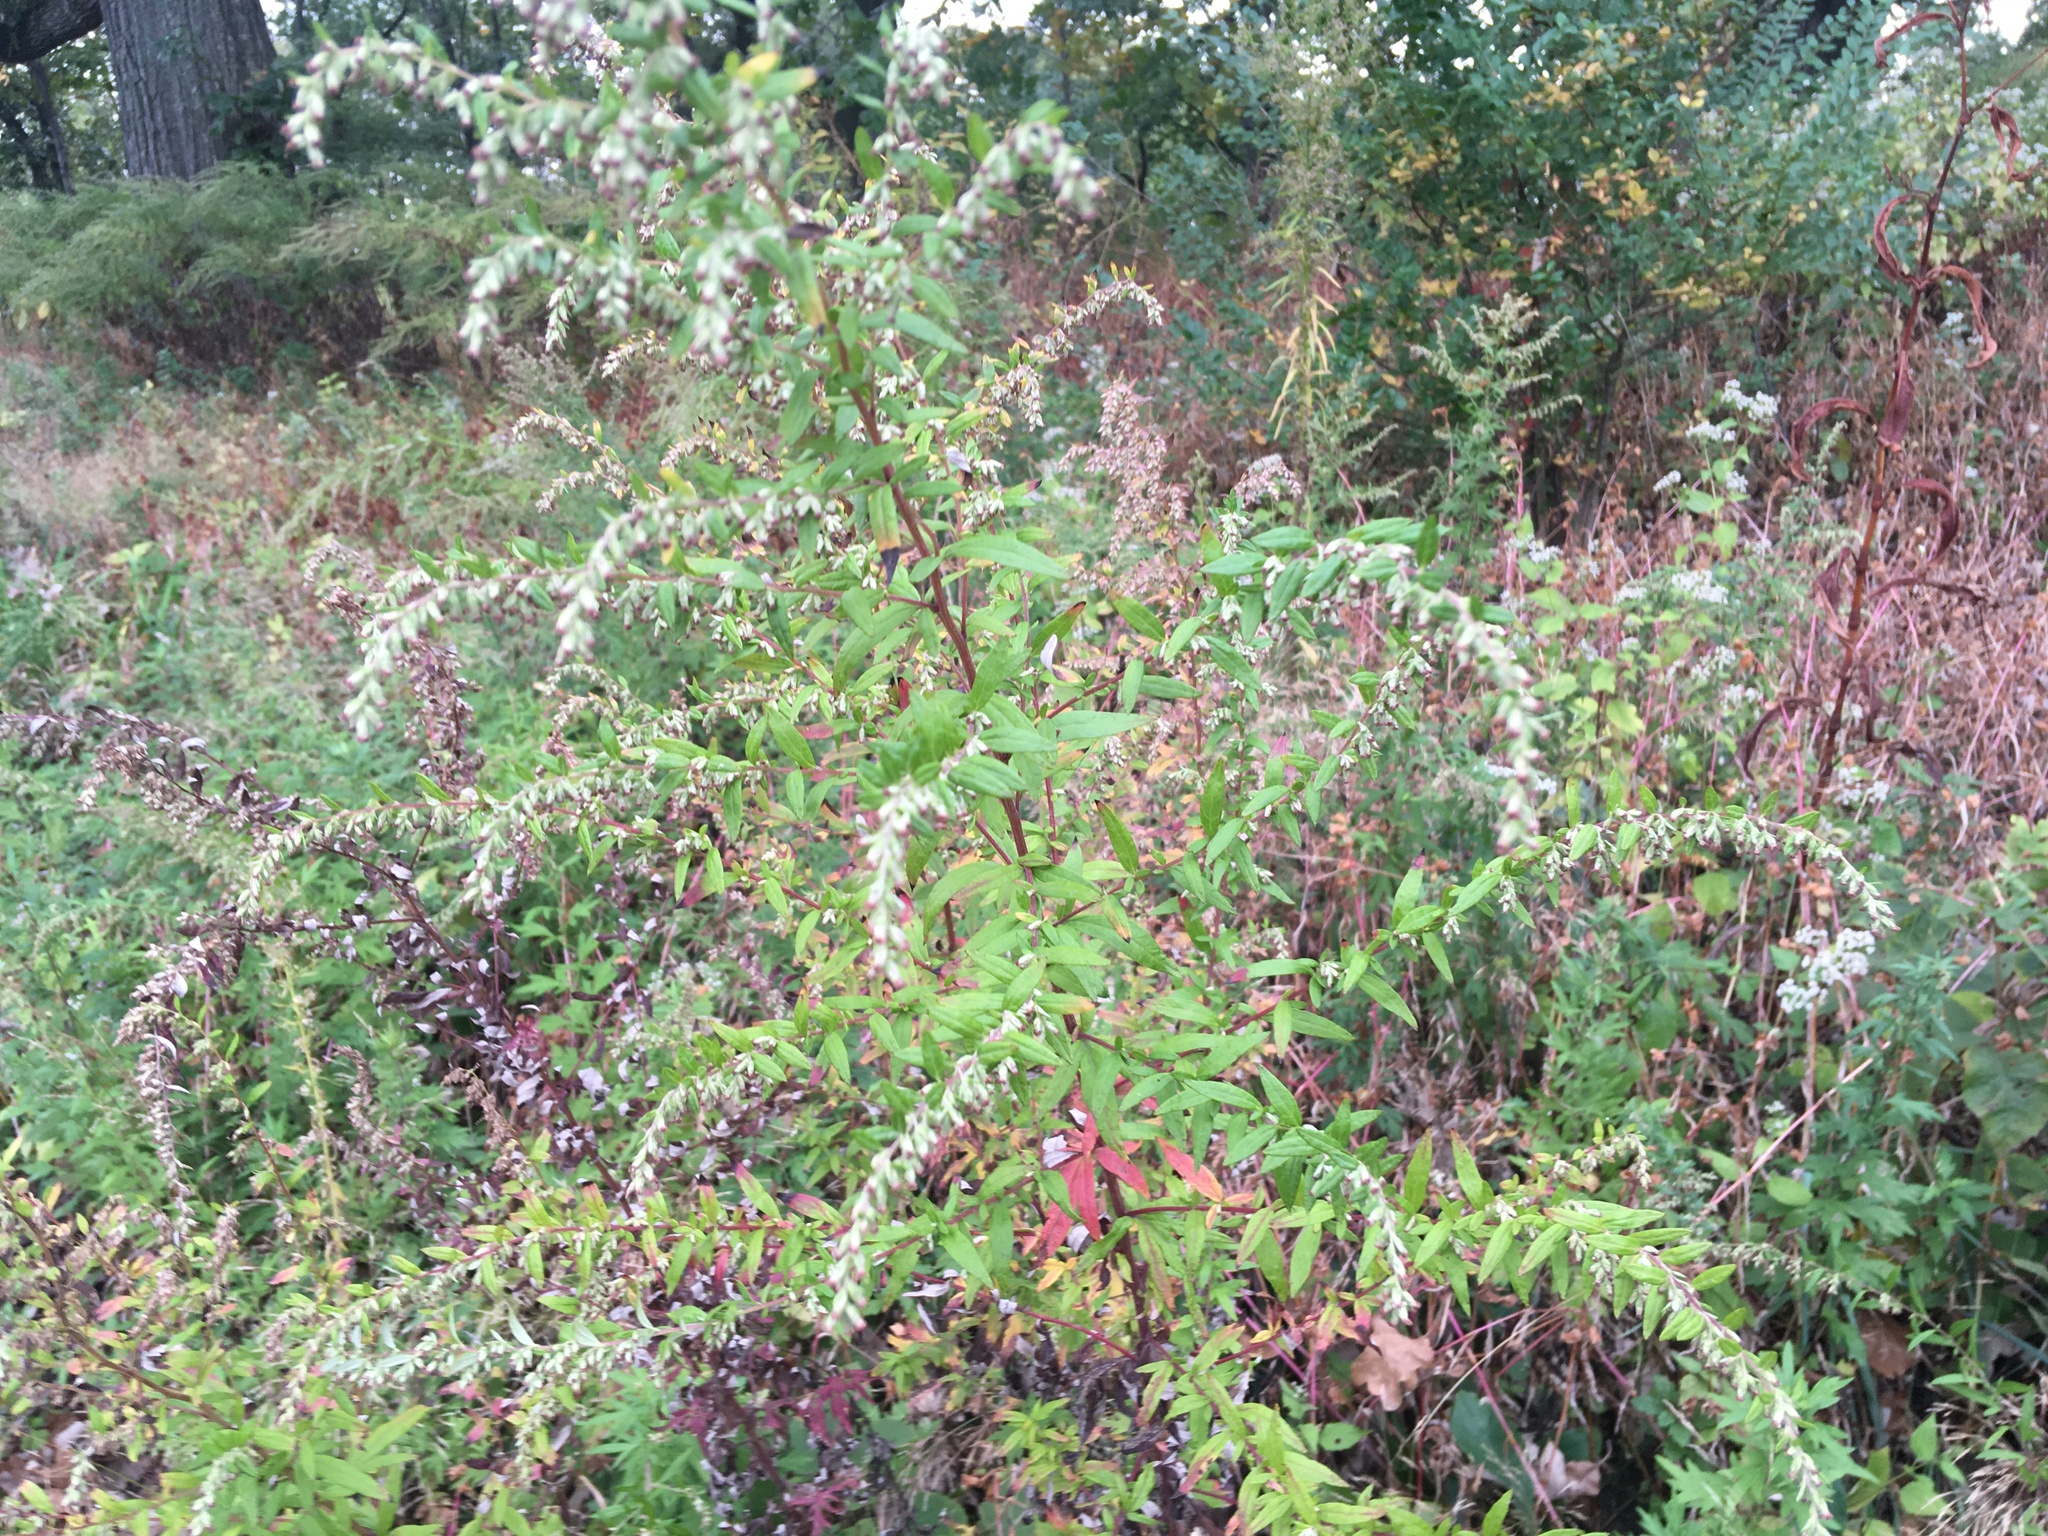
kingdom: Plantae
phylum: Tracheophyta
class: Magnoliopsida
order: Asterales
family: Asteraceae
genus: Artemisia
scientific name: Artemisia vulgaris
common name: Mugwort
